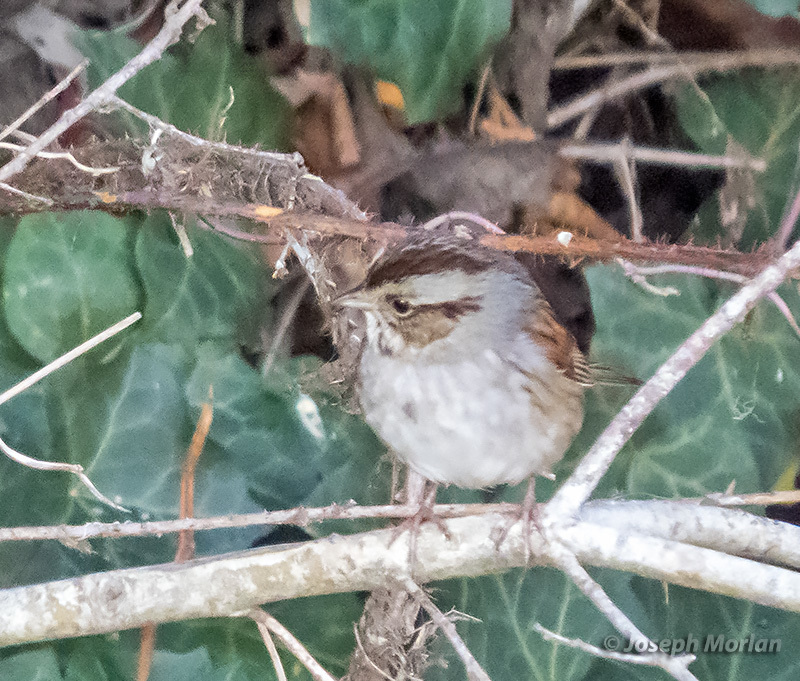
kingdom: Animalia
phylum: Chordata
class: Aves
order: Passeriformes
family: Passerellidae
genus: Melospiza
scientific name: Melospiza georgiana
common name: Swamp sparrow
